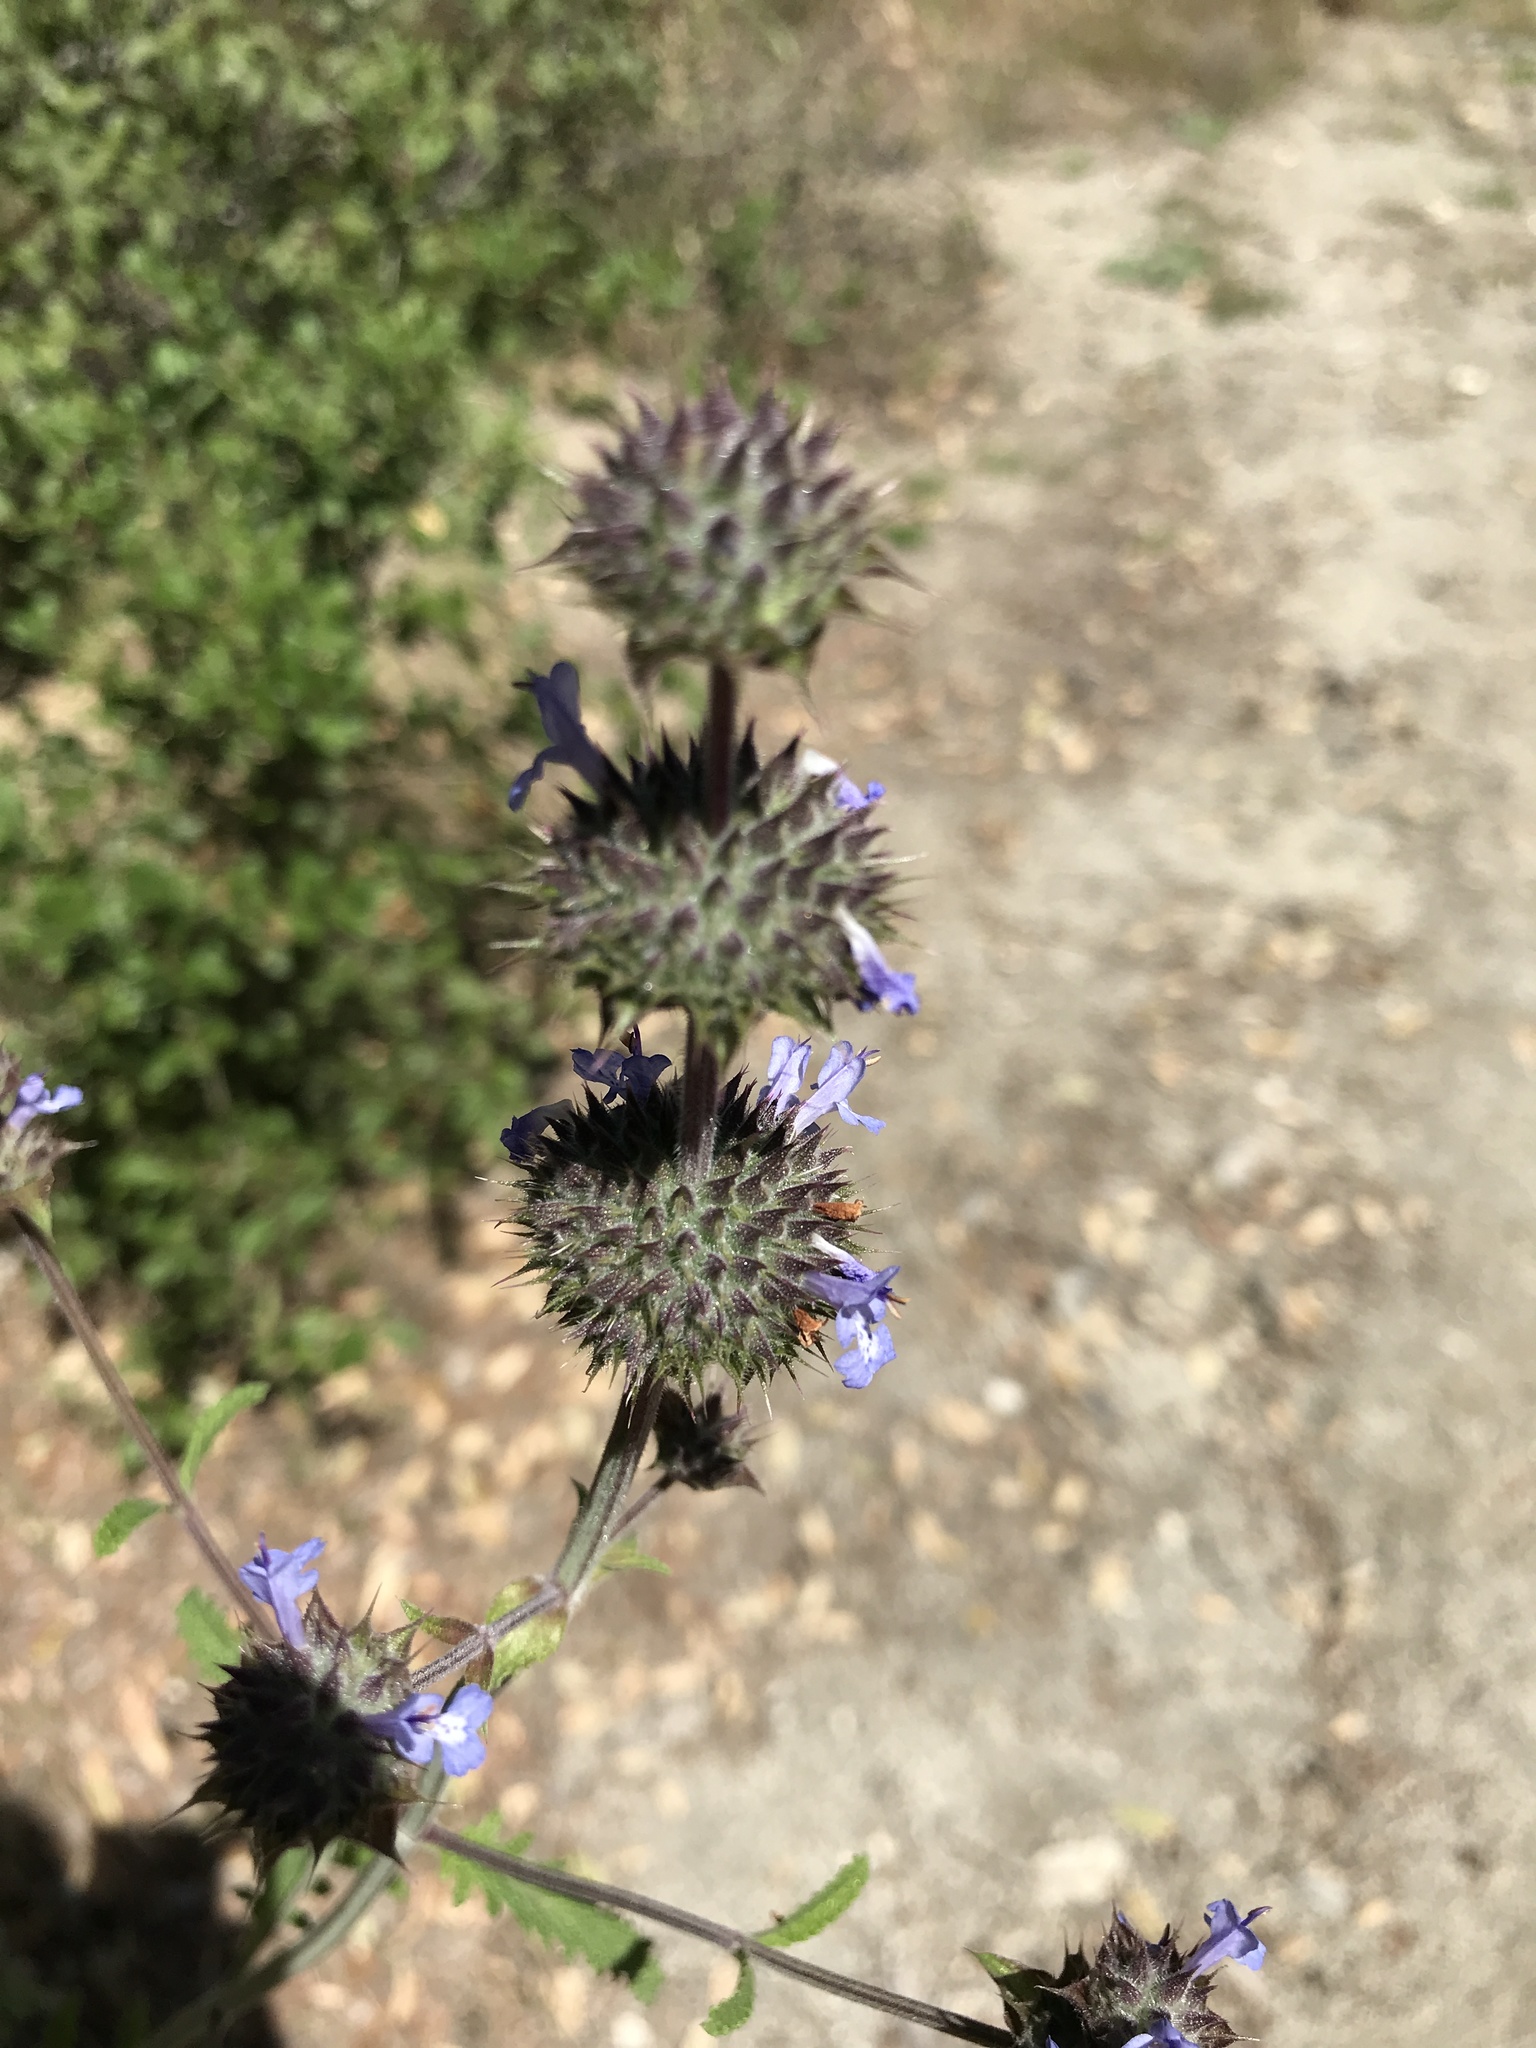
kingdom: Plantae
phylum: Tracheophyta
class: Magnoliopsida
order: Lamiales
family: Lamiaceae
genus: Salvia
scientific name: Salvia columbariae
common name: Chia
